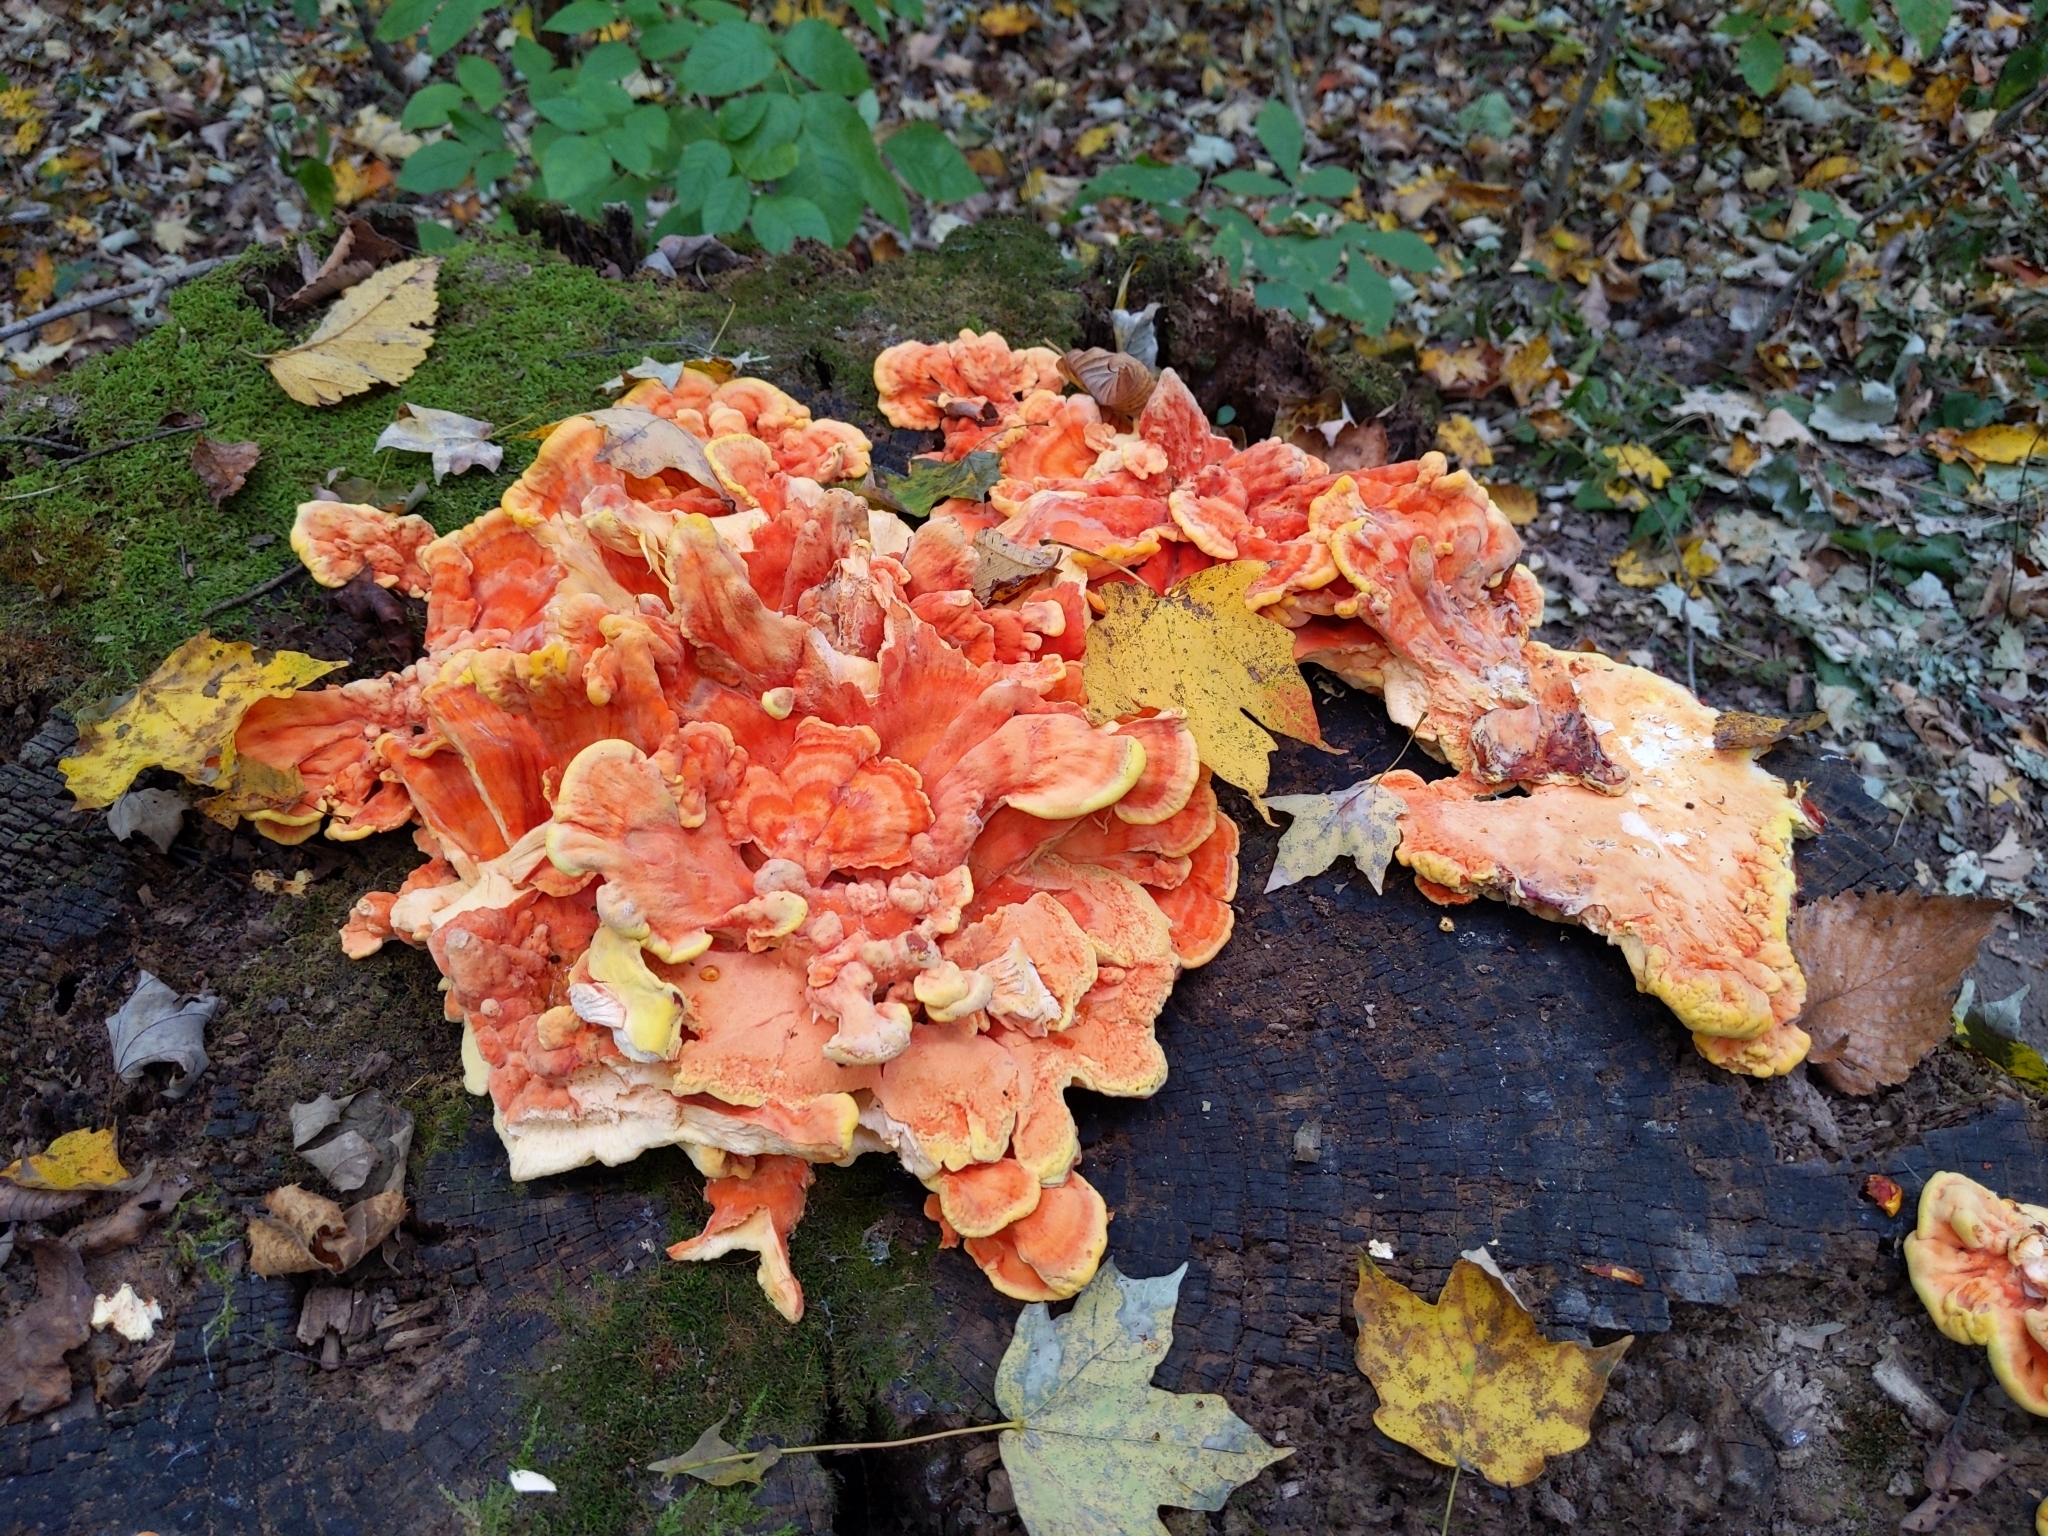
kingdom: Fungi
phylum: Basidiomycota
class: Agaricomycetes
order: Polyporales
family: Laetiporaceae
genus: Laetiporus
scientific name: Laetiporus sulphureus
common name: Chicken of the woods
